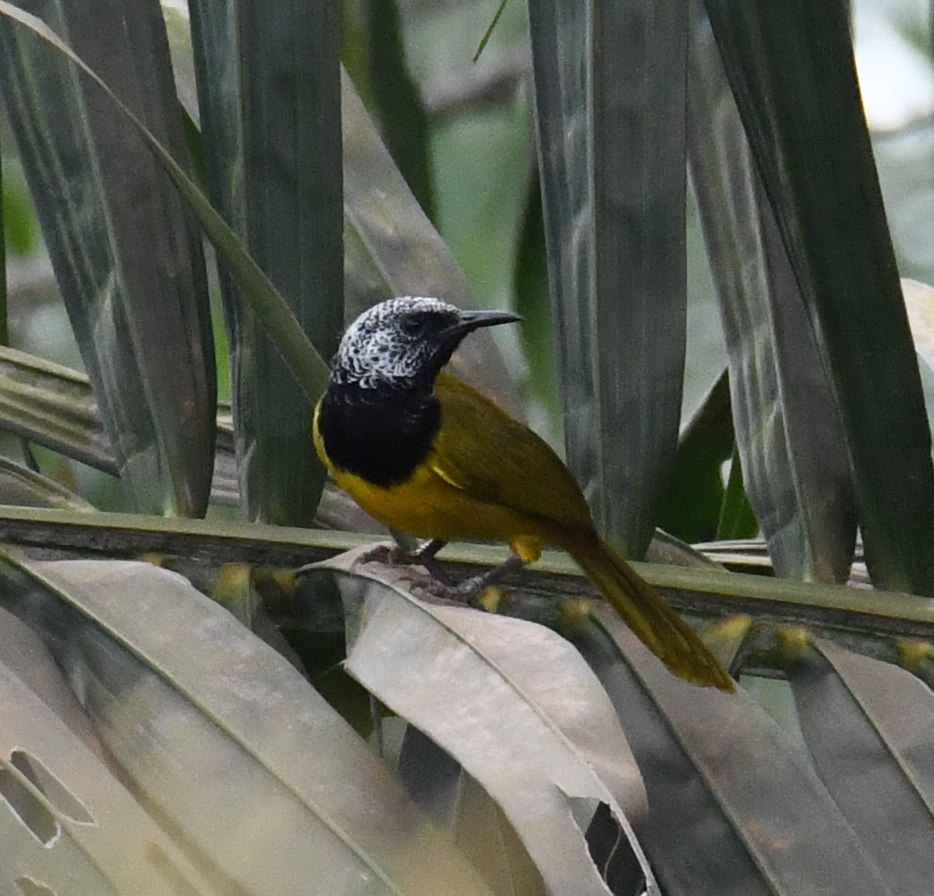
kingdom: Animalia
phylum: Chordata
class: Aves
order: Passeriformes
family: Cisticolidae
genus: Hypergerus
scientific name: Hypergerus atriceps
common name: Oriole warbler
